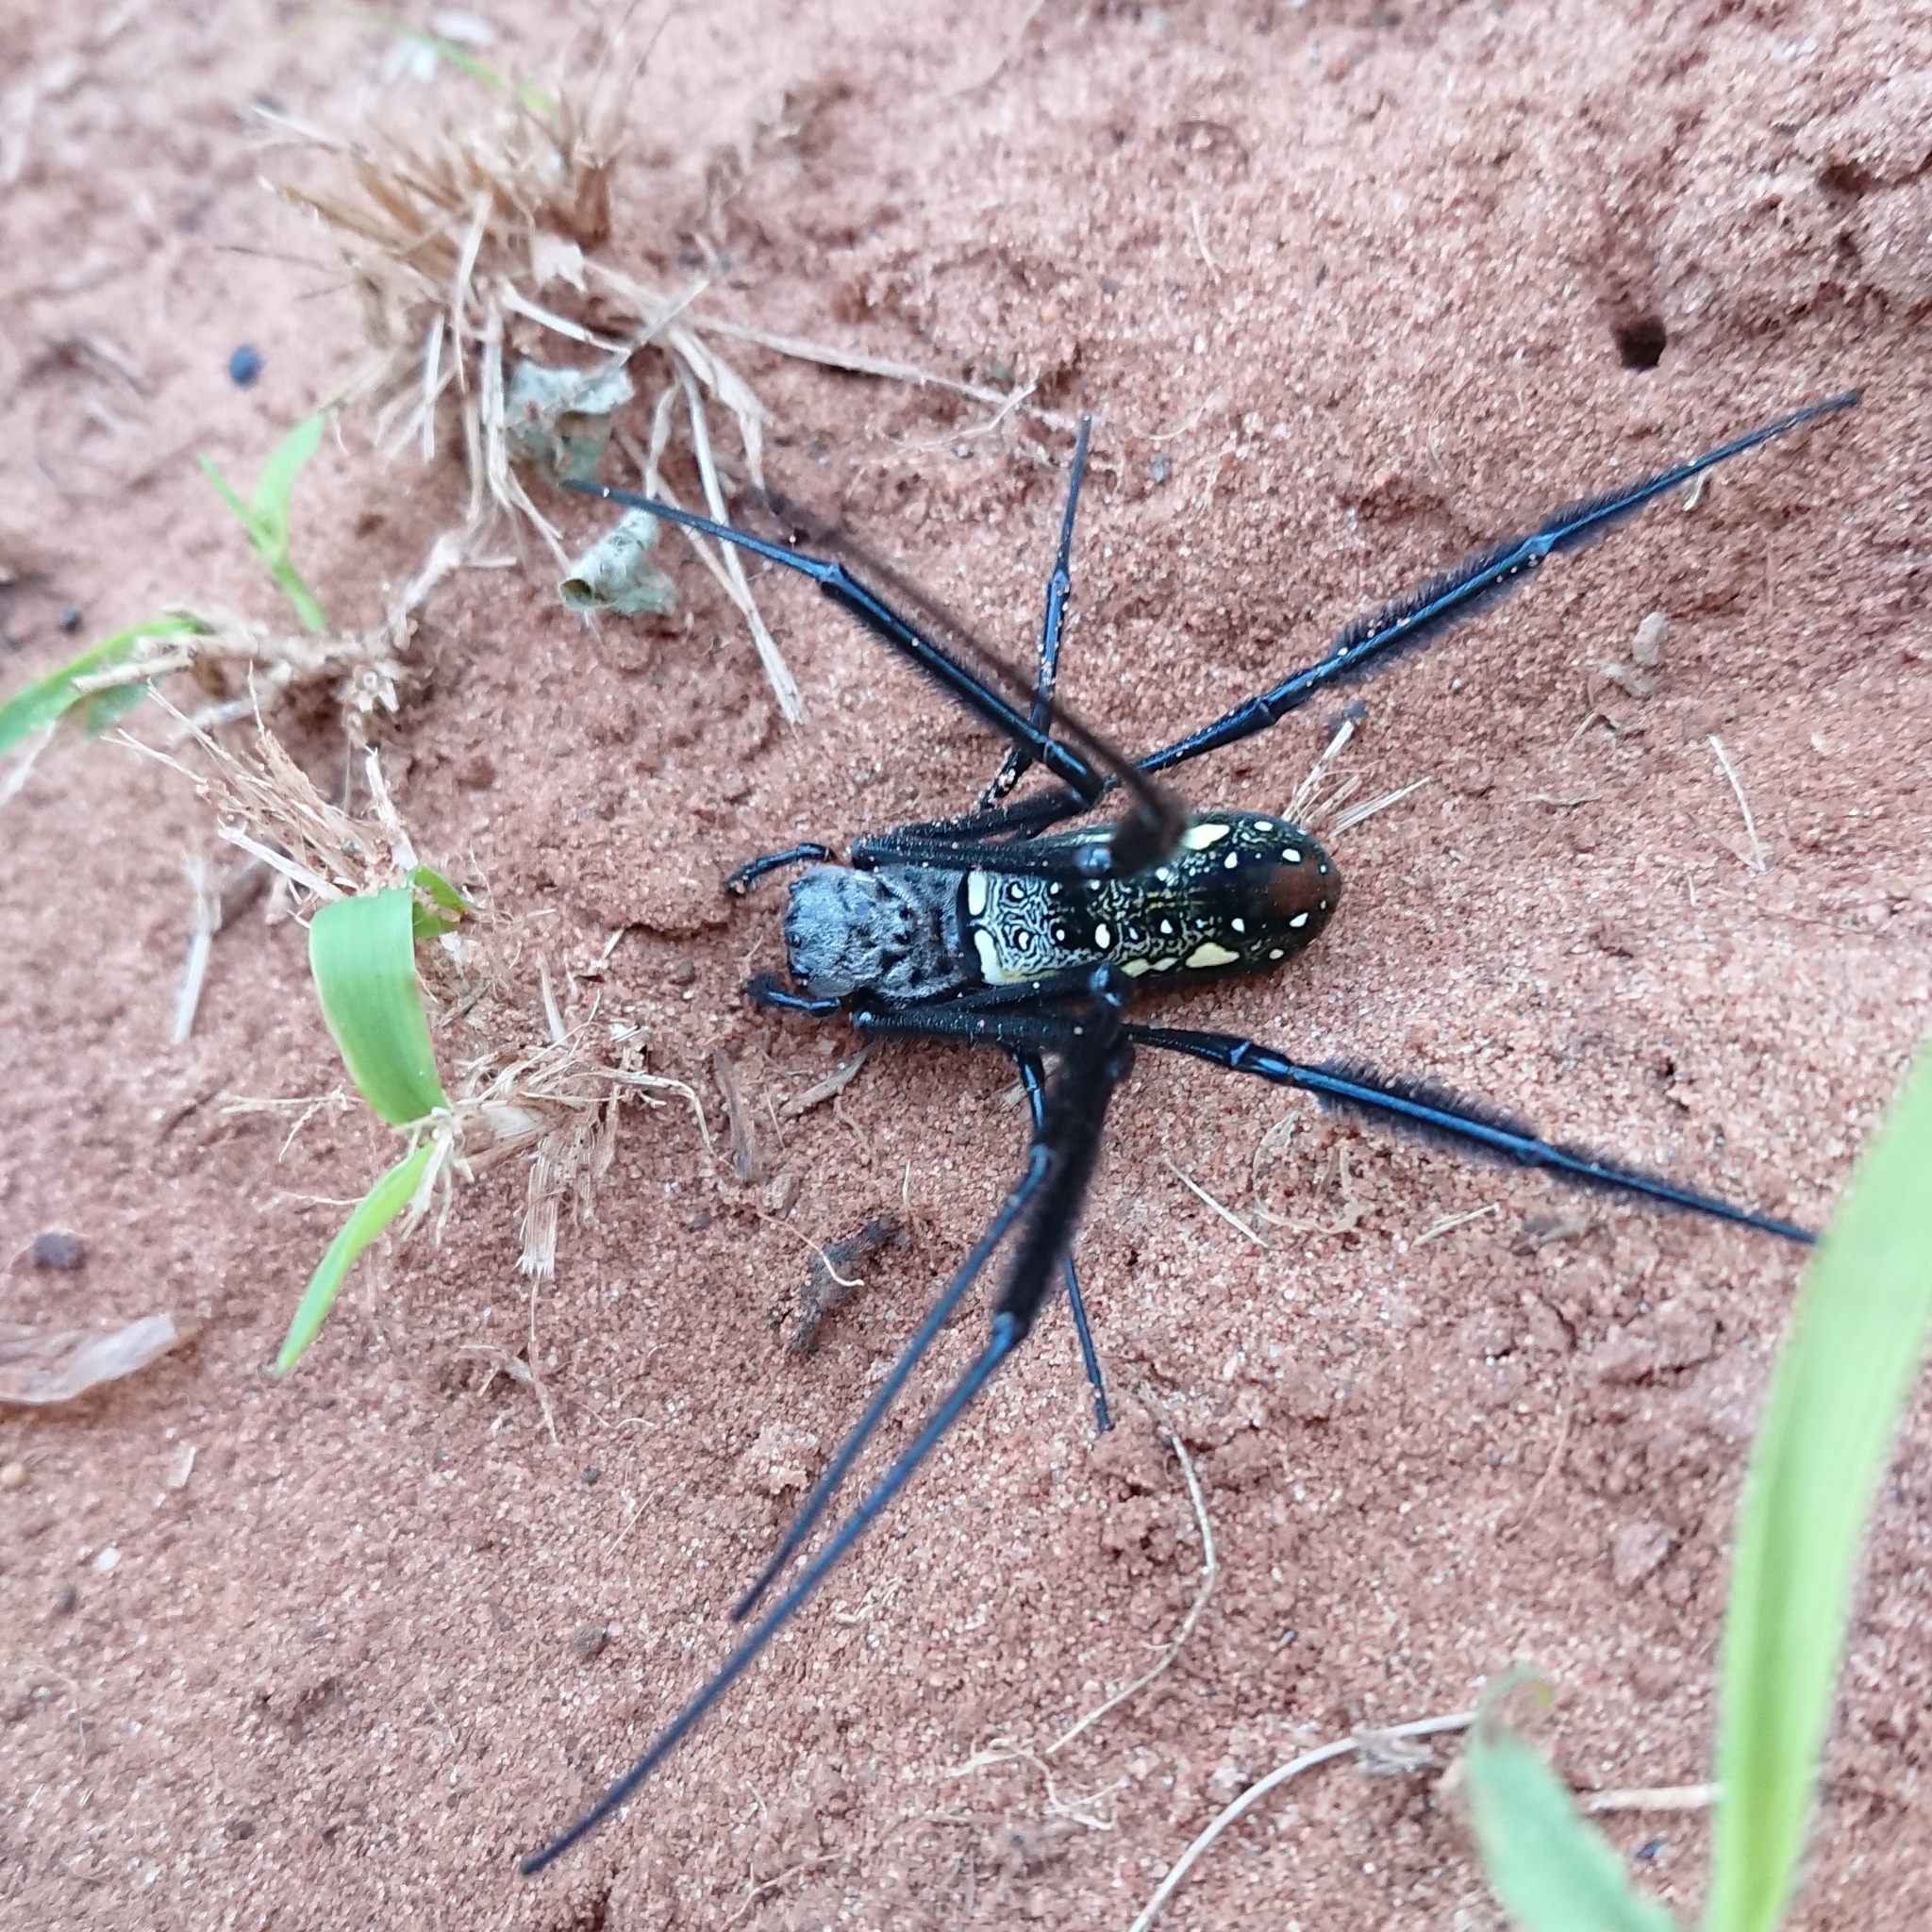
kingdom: Animalia
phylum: Arthropoda
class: Arachnida
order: Araneae
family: Araneidae
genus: Trichonephila
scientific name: Trichonephila fenestrata
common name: Hairy golden orb weaver
